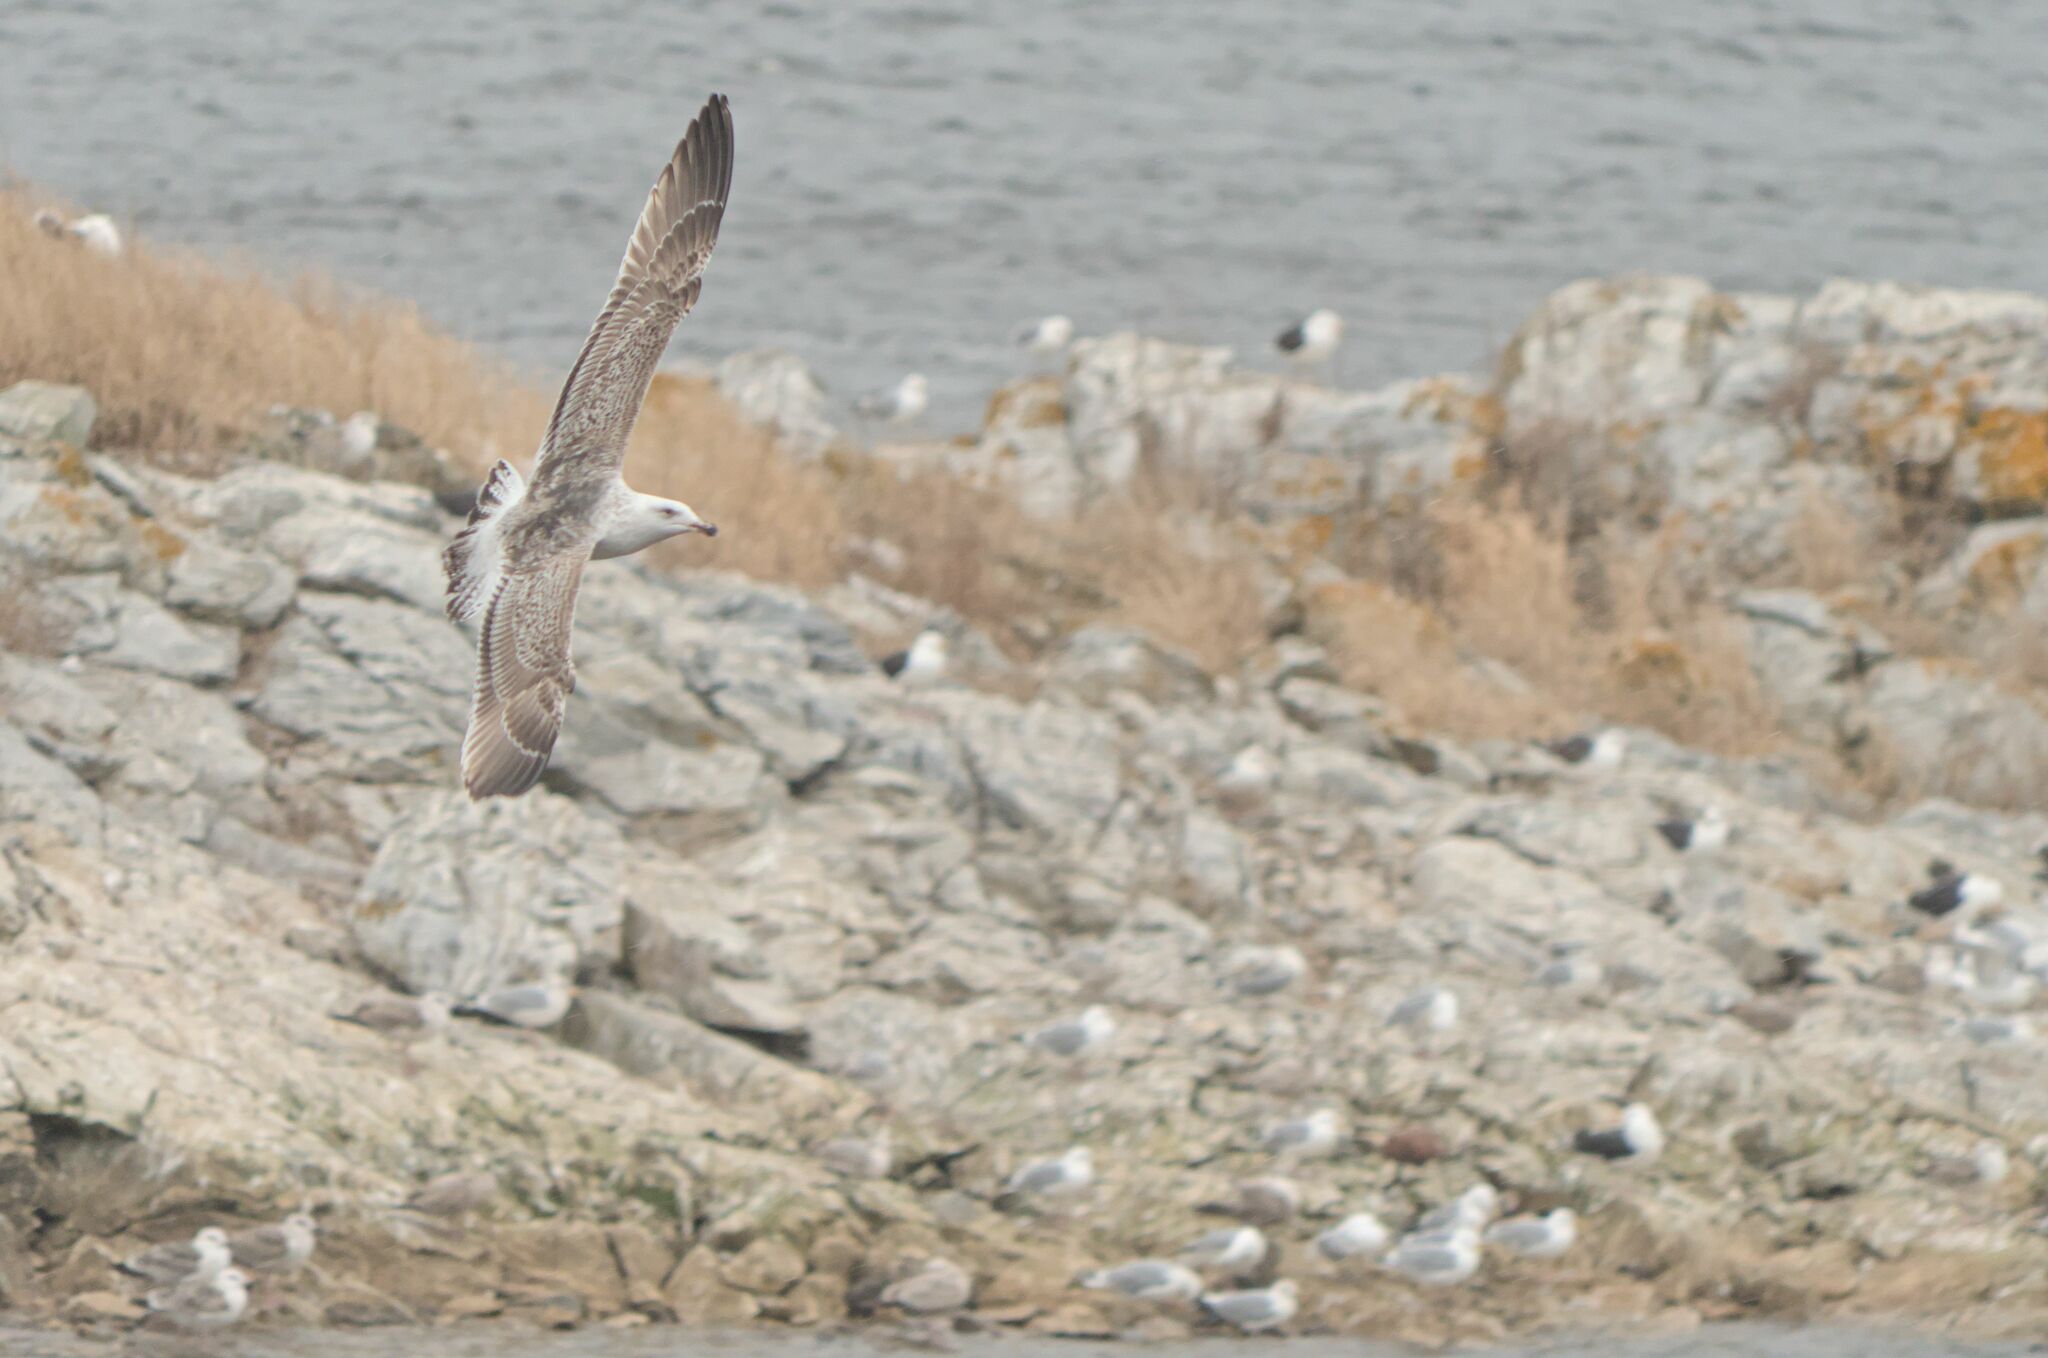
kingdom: Animalia
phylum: Chordata
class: Aves
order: Charadriiformes
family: Laridae
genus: Larus
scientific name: Larus marinus
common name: Great black-backed gull
